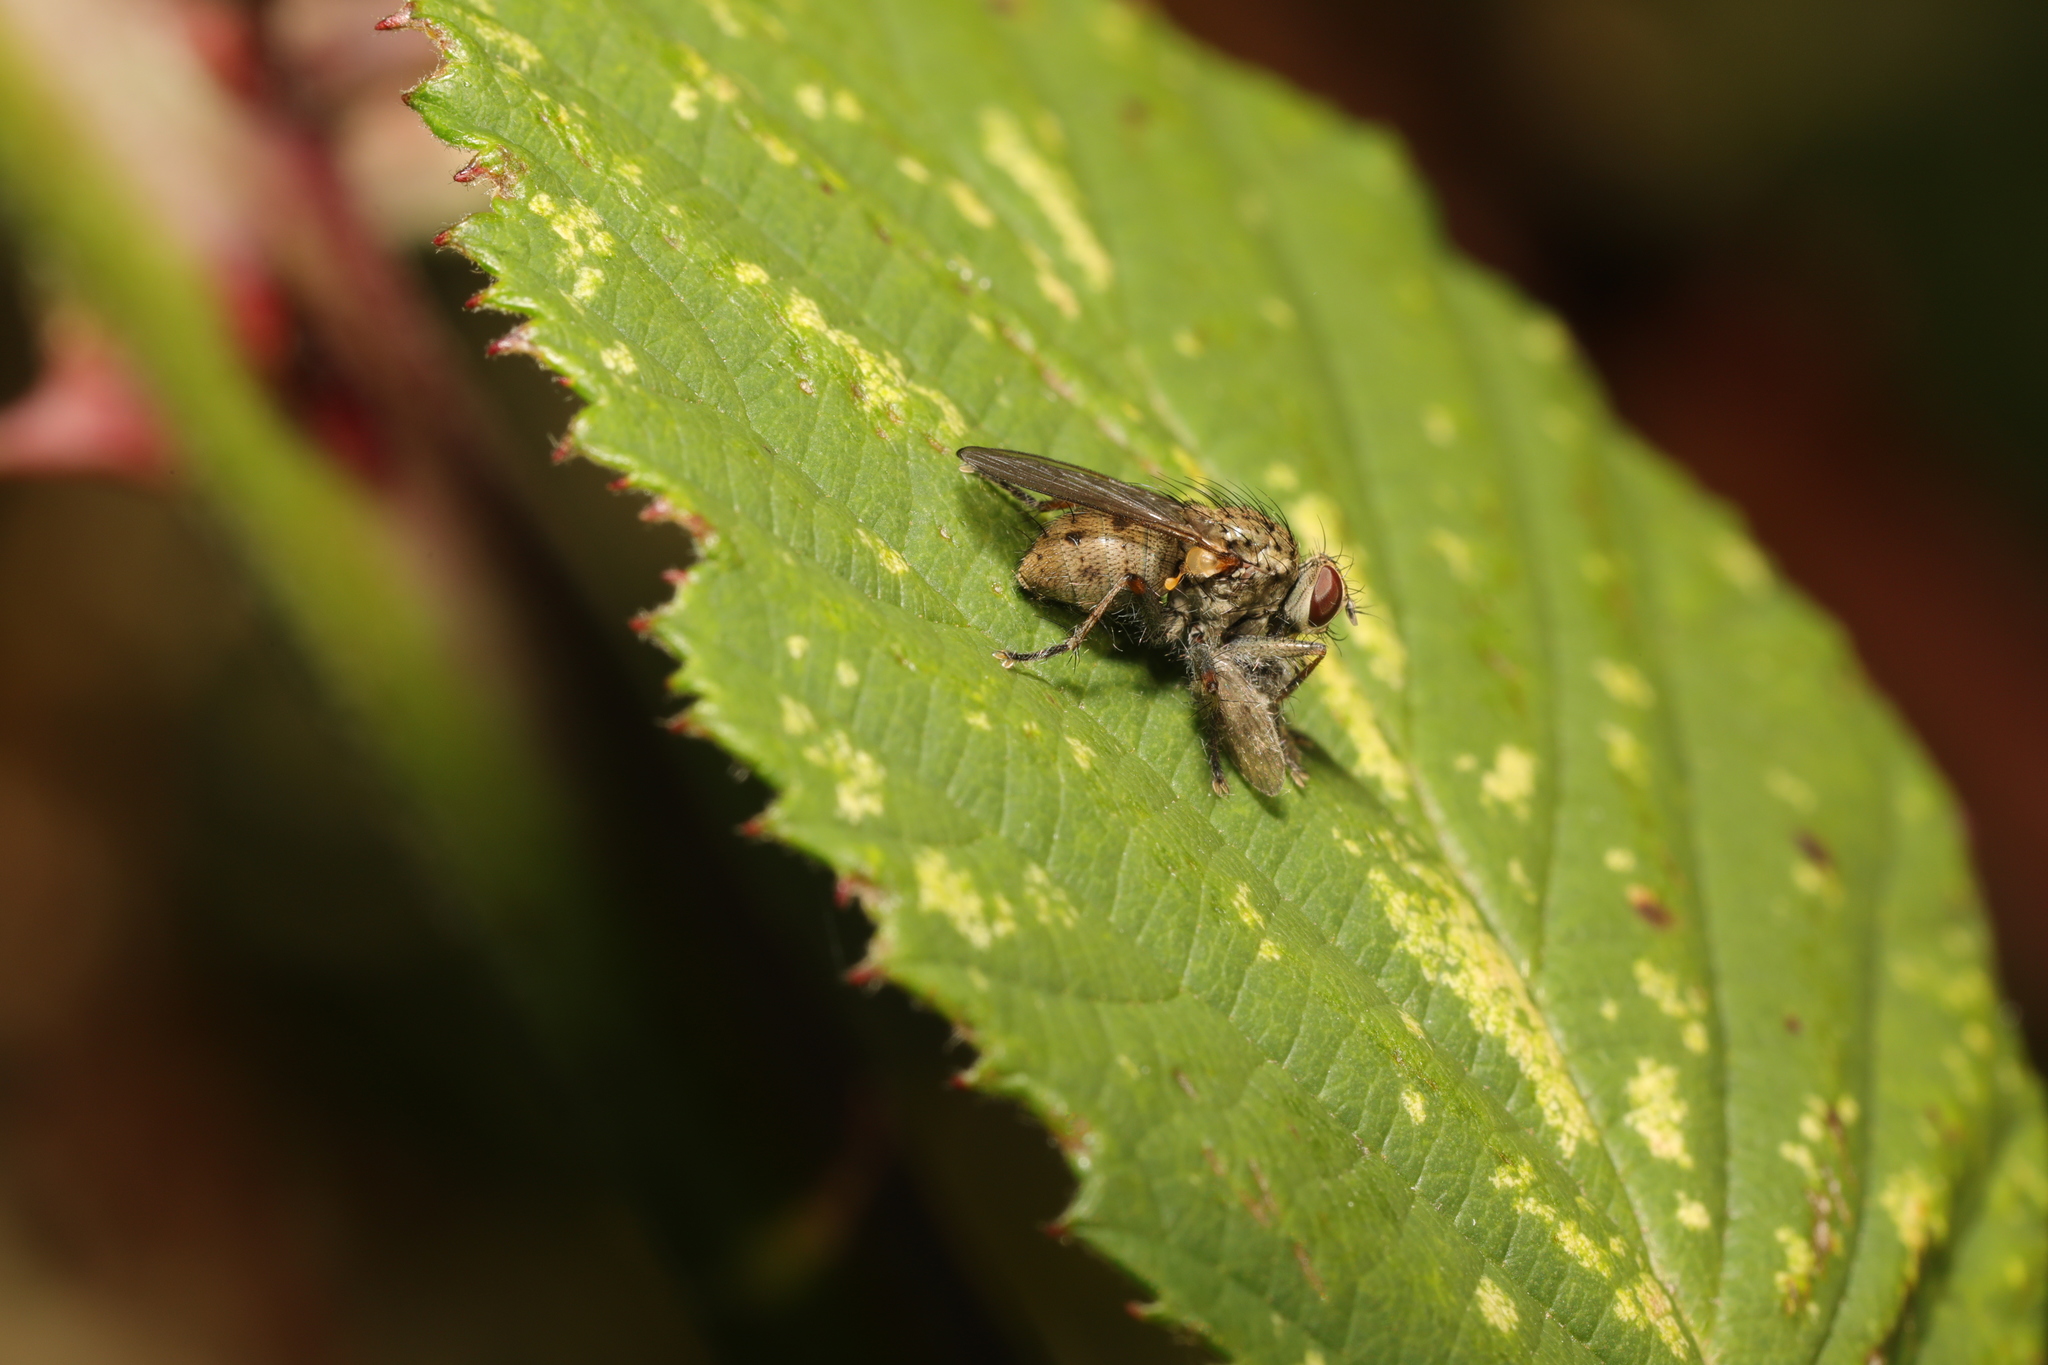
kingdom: Animalia
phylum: Arthropoda
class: Insecta
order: Diptera
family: Muscidae
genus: Coenosia
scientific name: Coenosia tigrina
